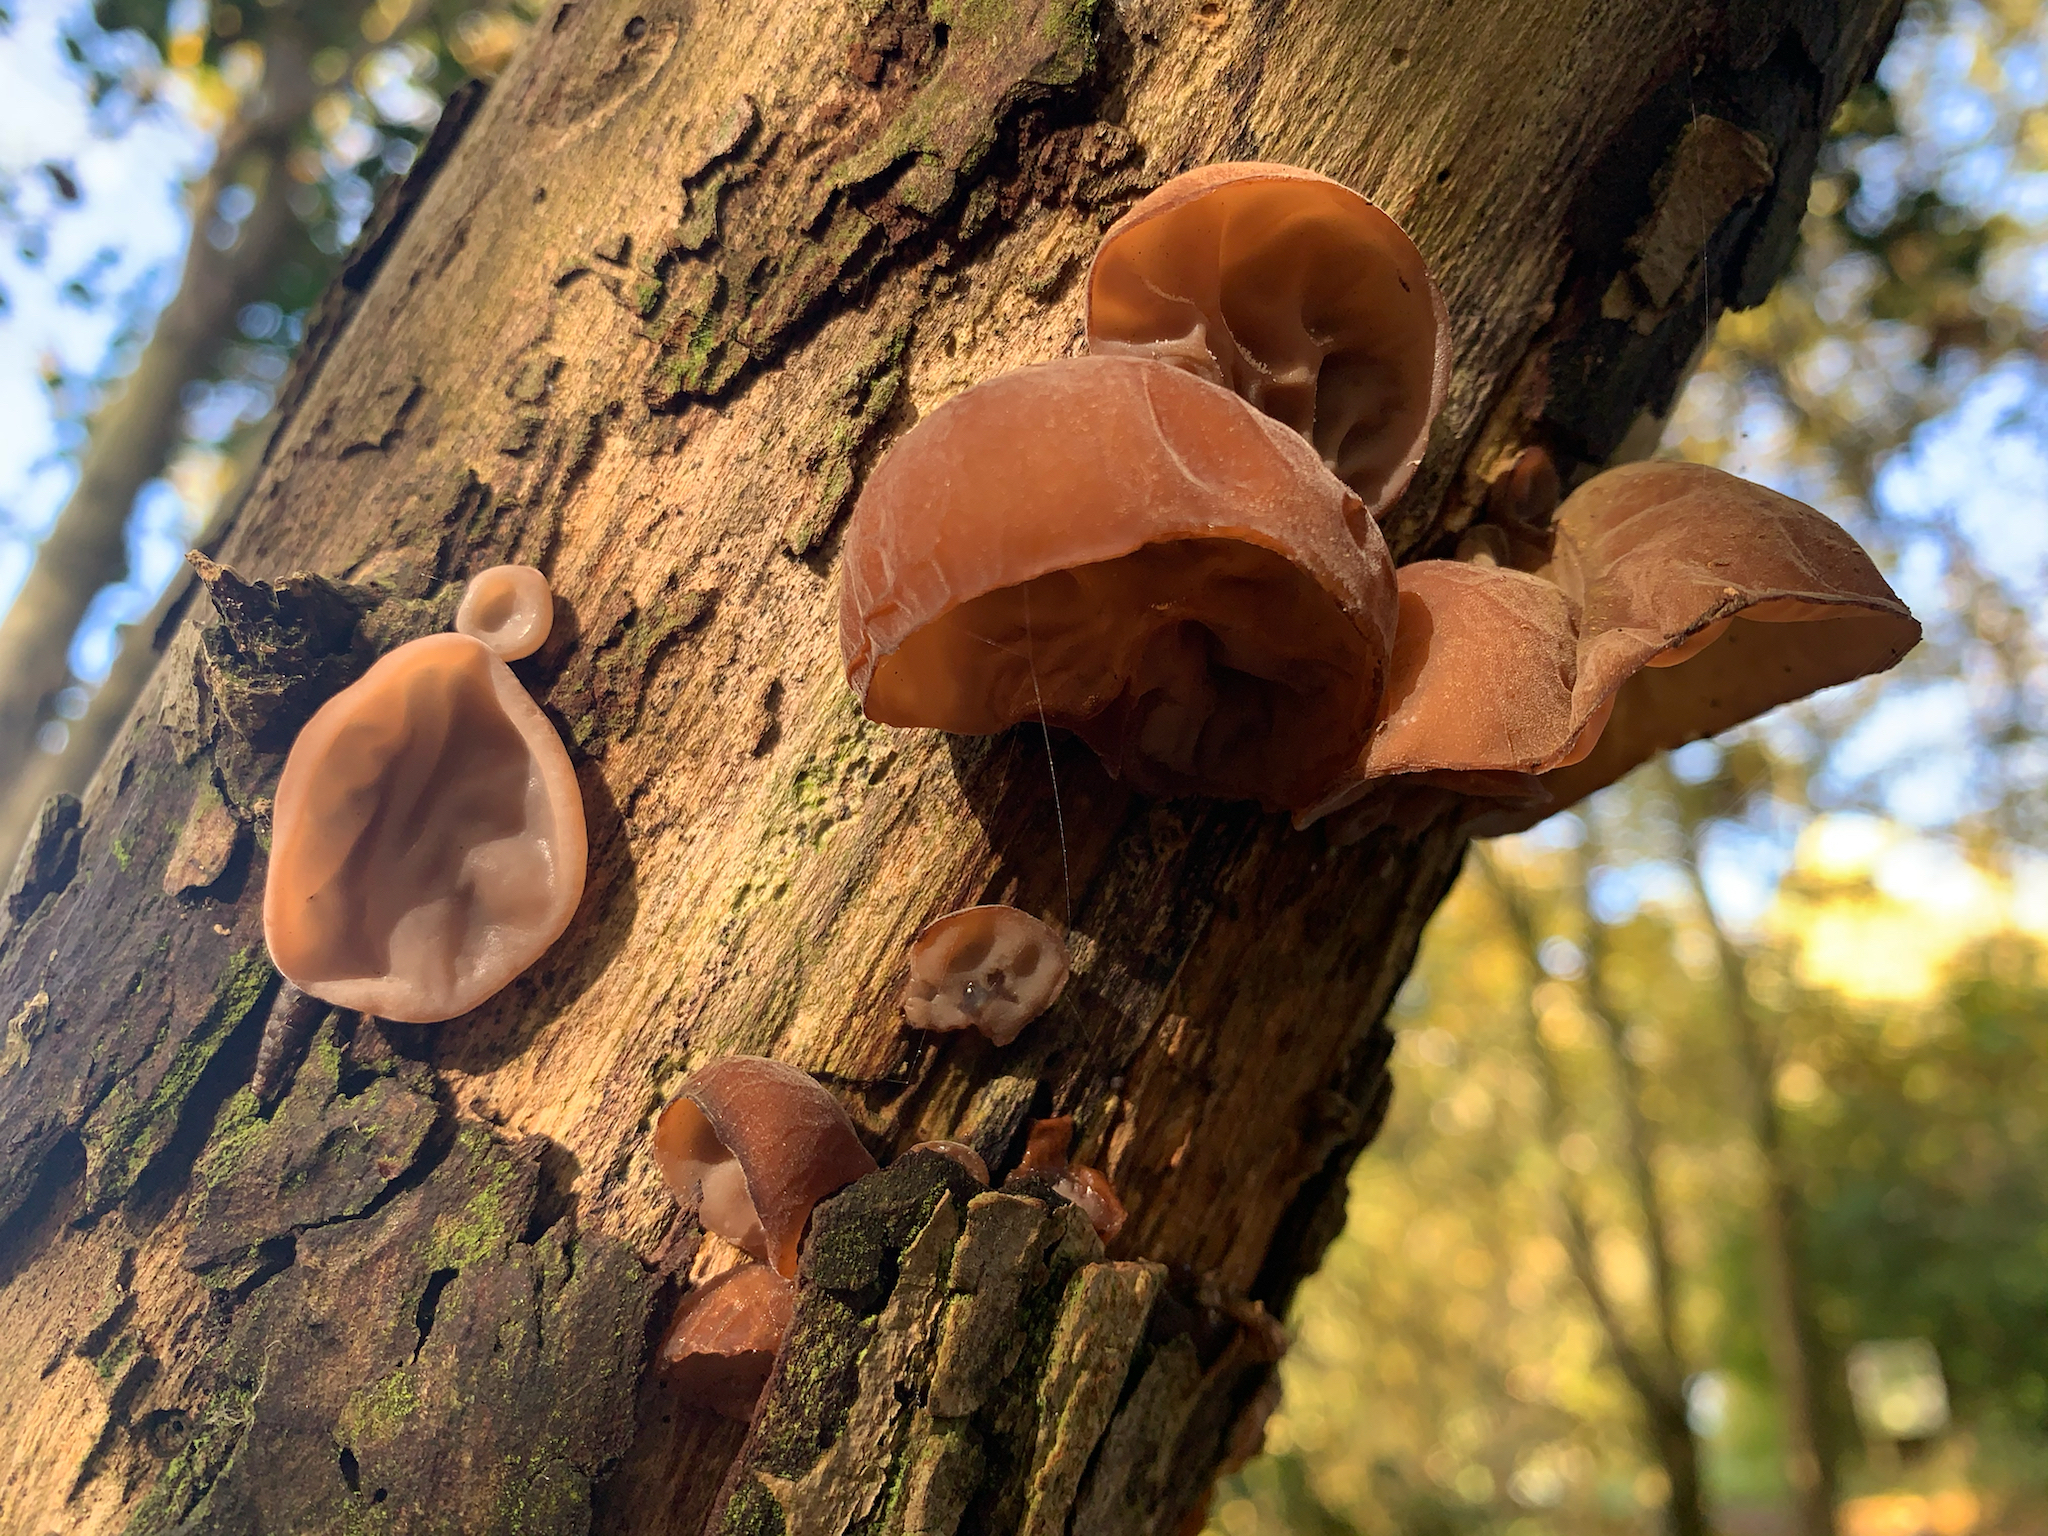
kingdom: Fungi
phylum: Basidiomycota
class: Agaricomycetes
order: Auriculariales
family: Auriculariaceae
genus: Auricularia
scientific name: Auricularia auricula-judae
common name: Jelly ear
